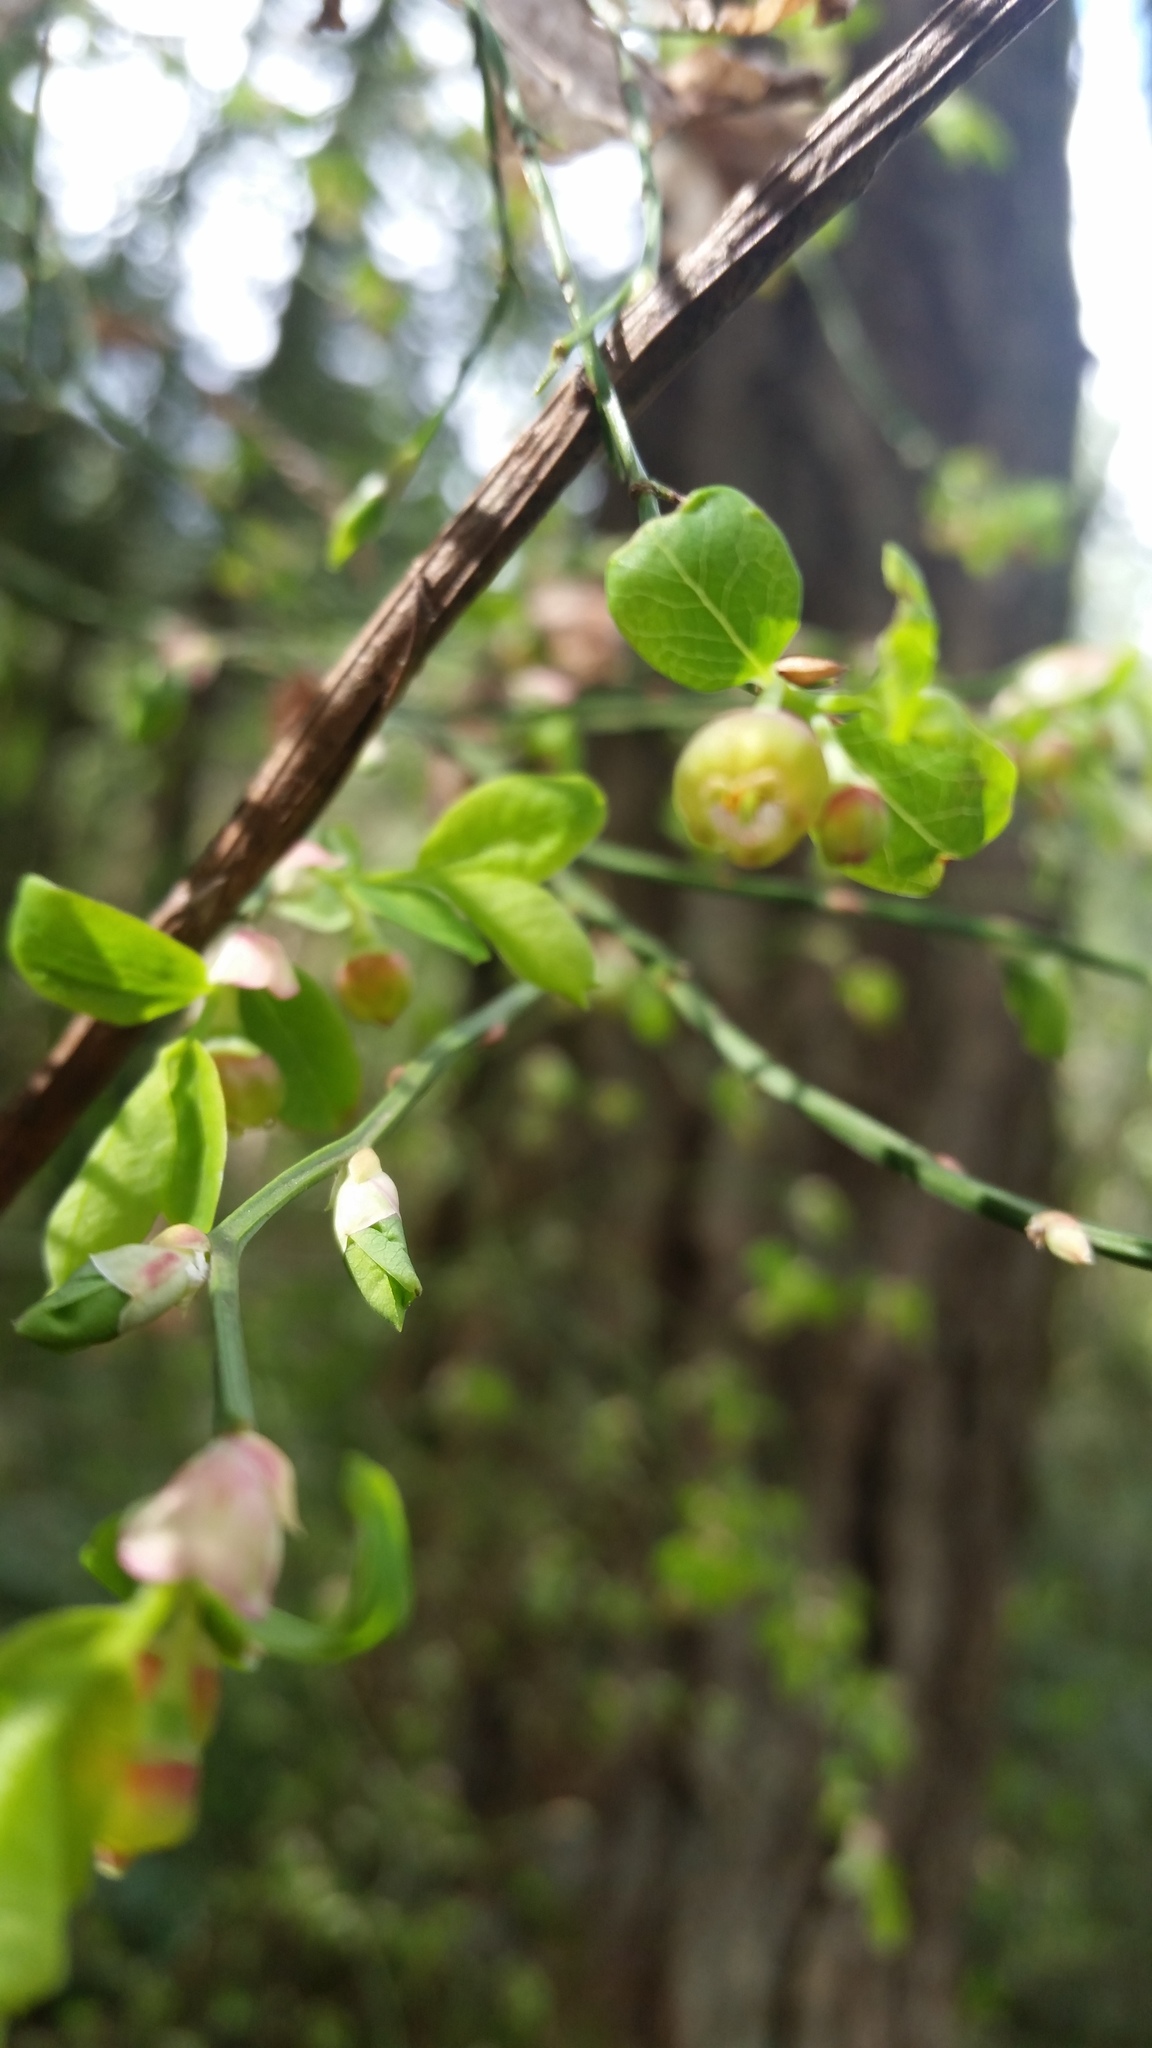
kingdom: Plantae
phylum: Tracheophyta
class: Magnoliopsida
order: Ericales
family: Ericaceae
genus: Vaccinium
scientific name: Vaccinium parvifolium
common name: Red-huckleberry
